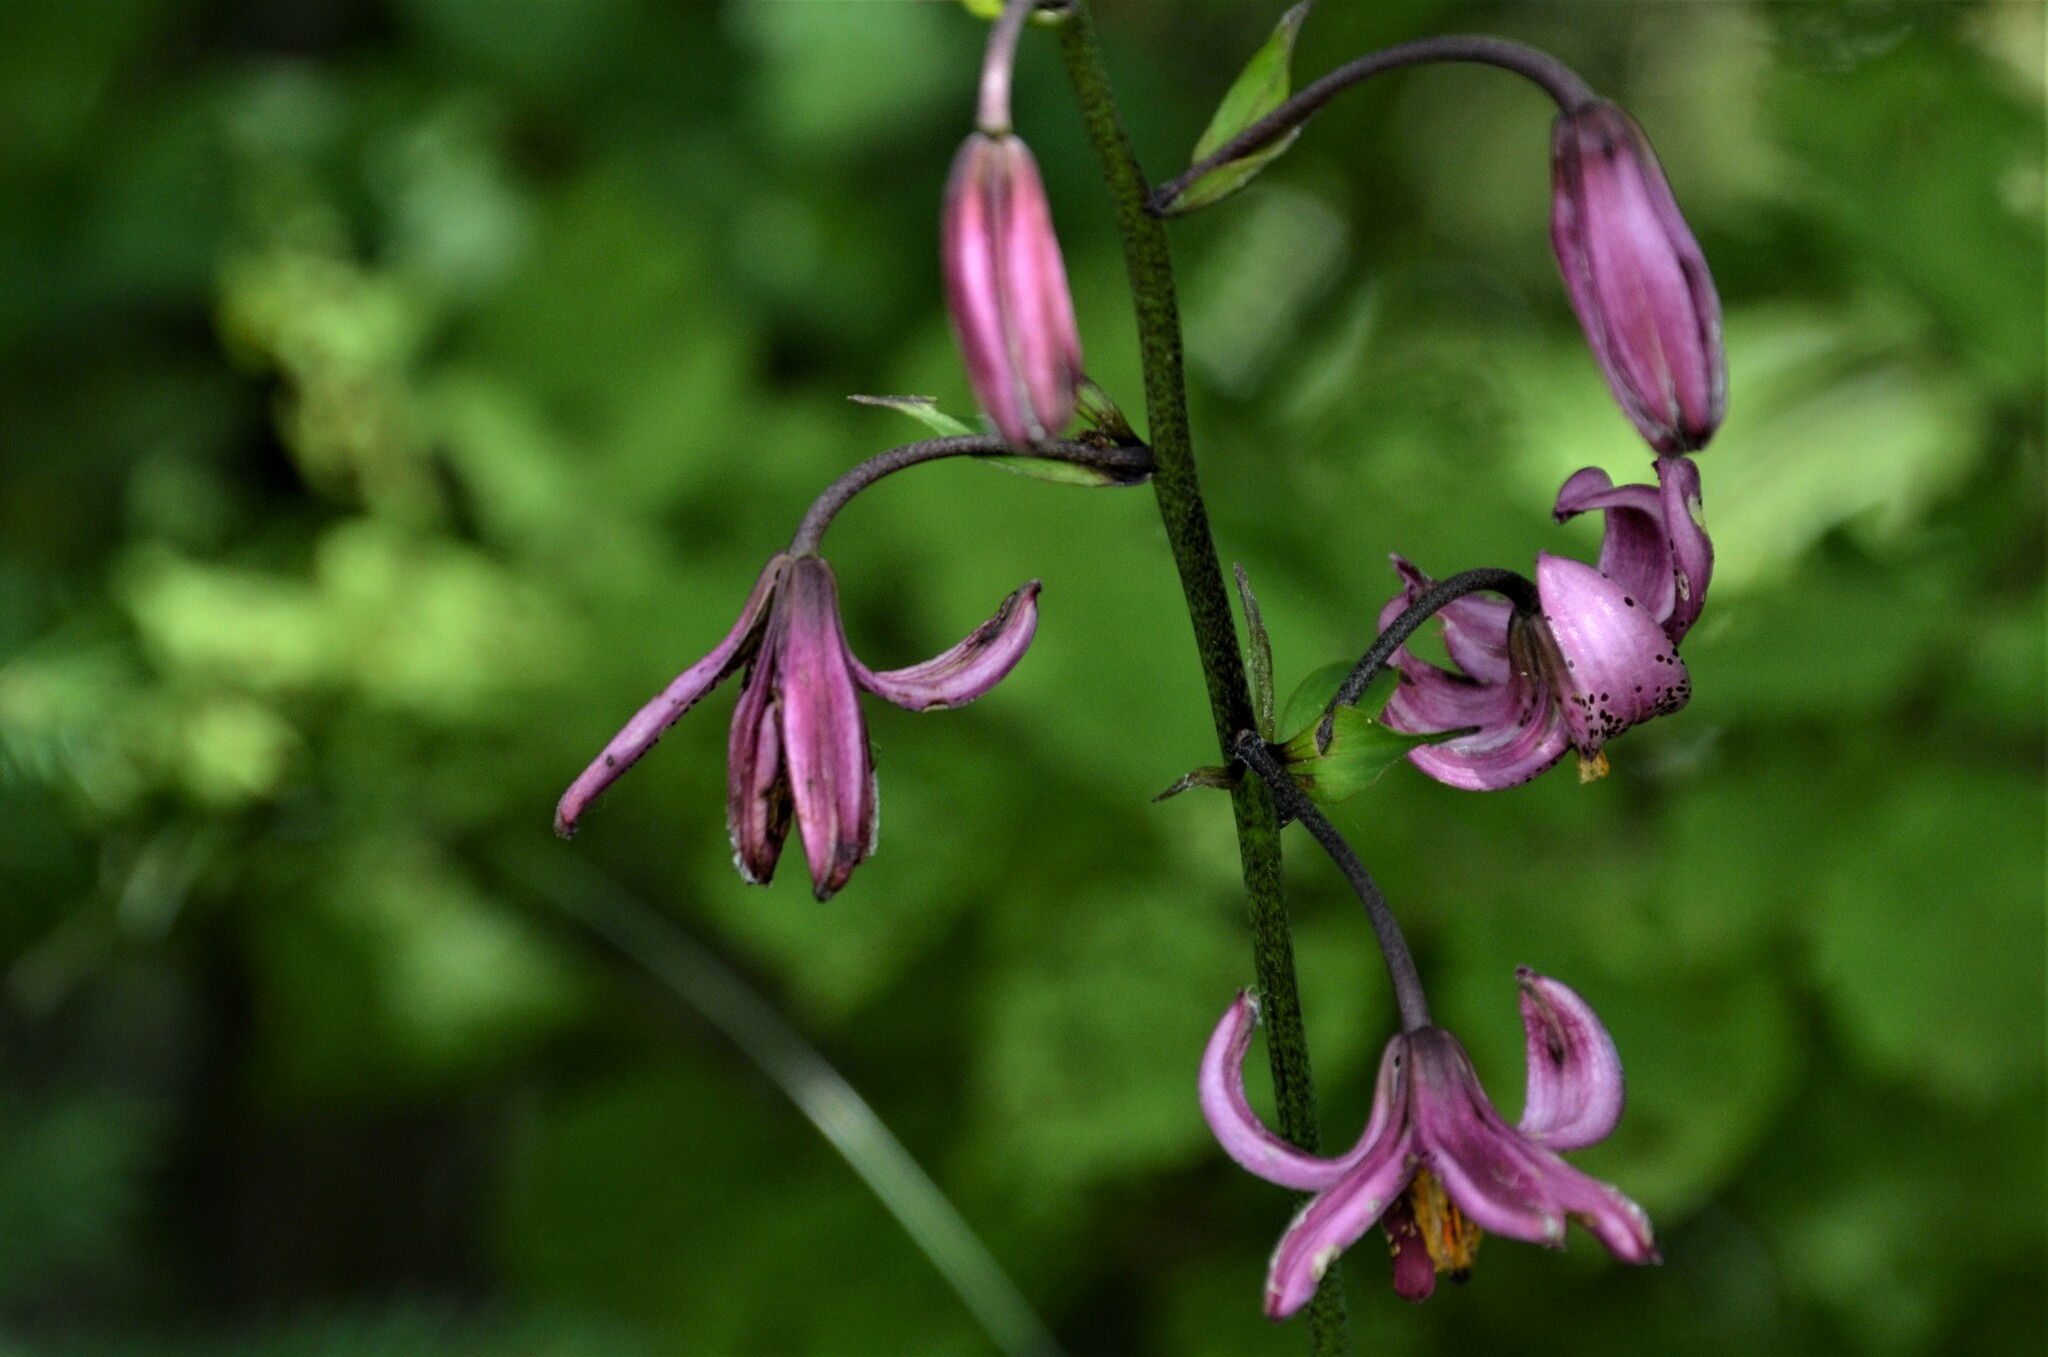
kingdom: Plantae
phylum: Tracheophyta
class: Liliopsida
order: Liliales
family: Liliaceae
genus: Lilium
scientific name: Lilium martagon
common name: Martagon lily
